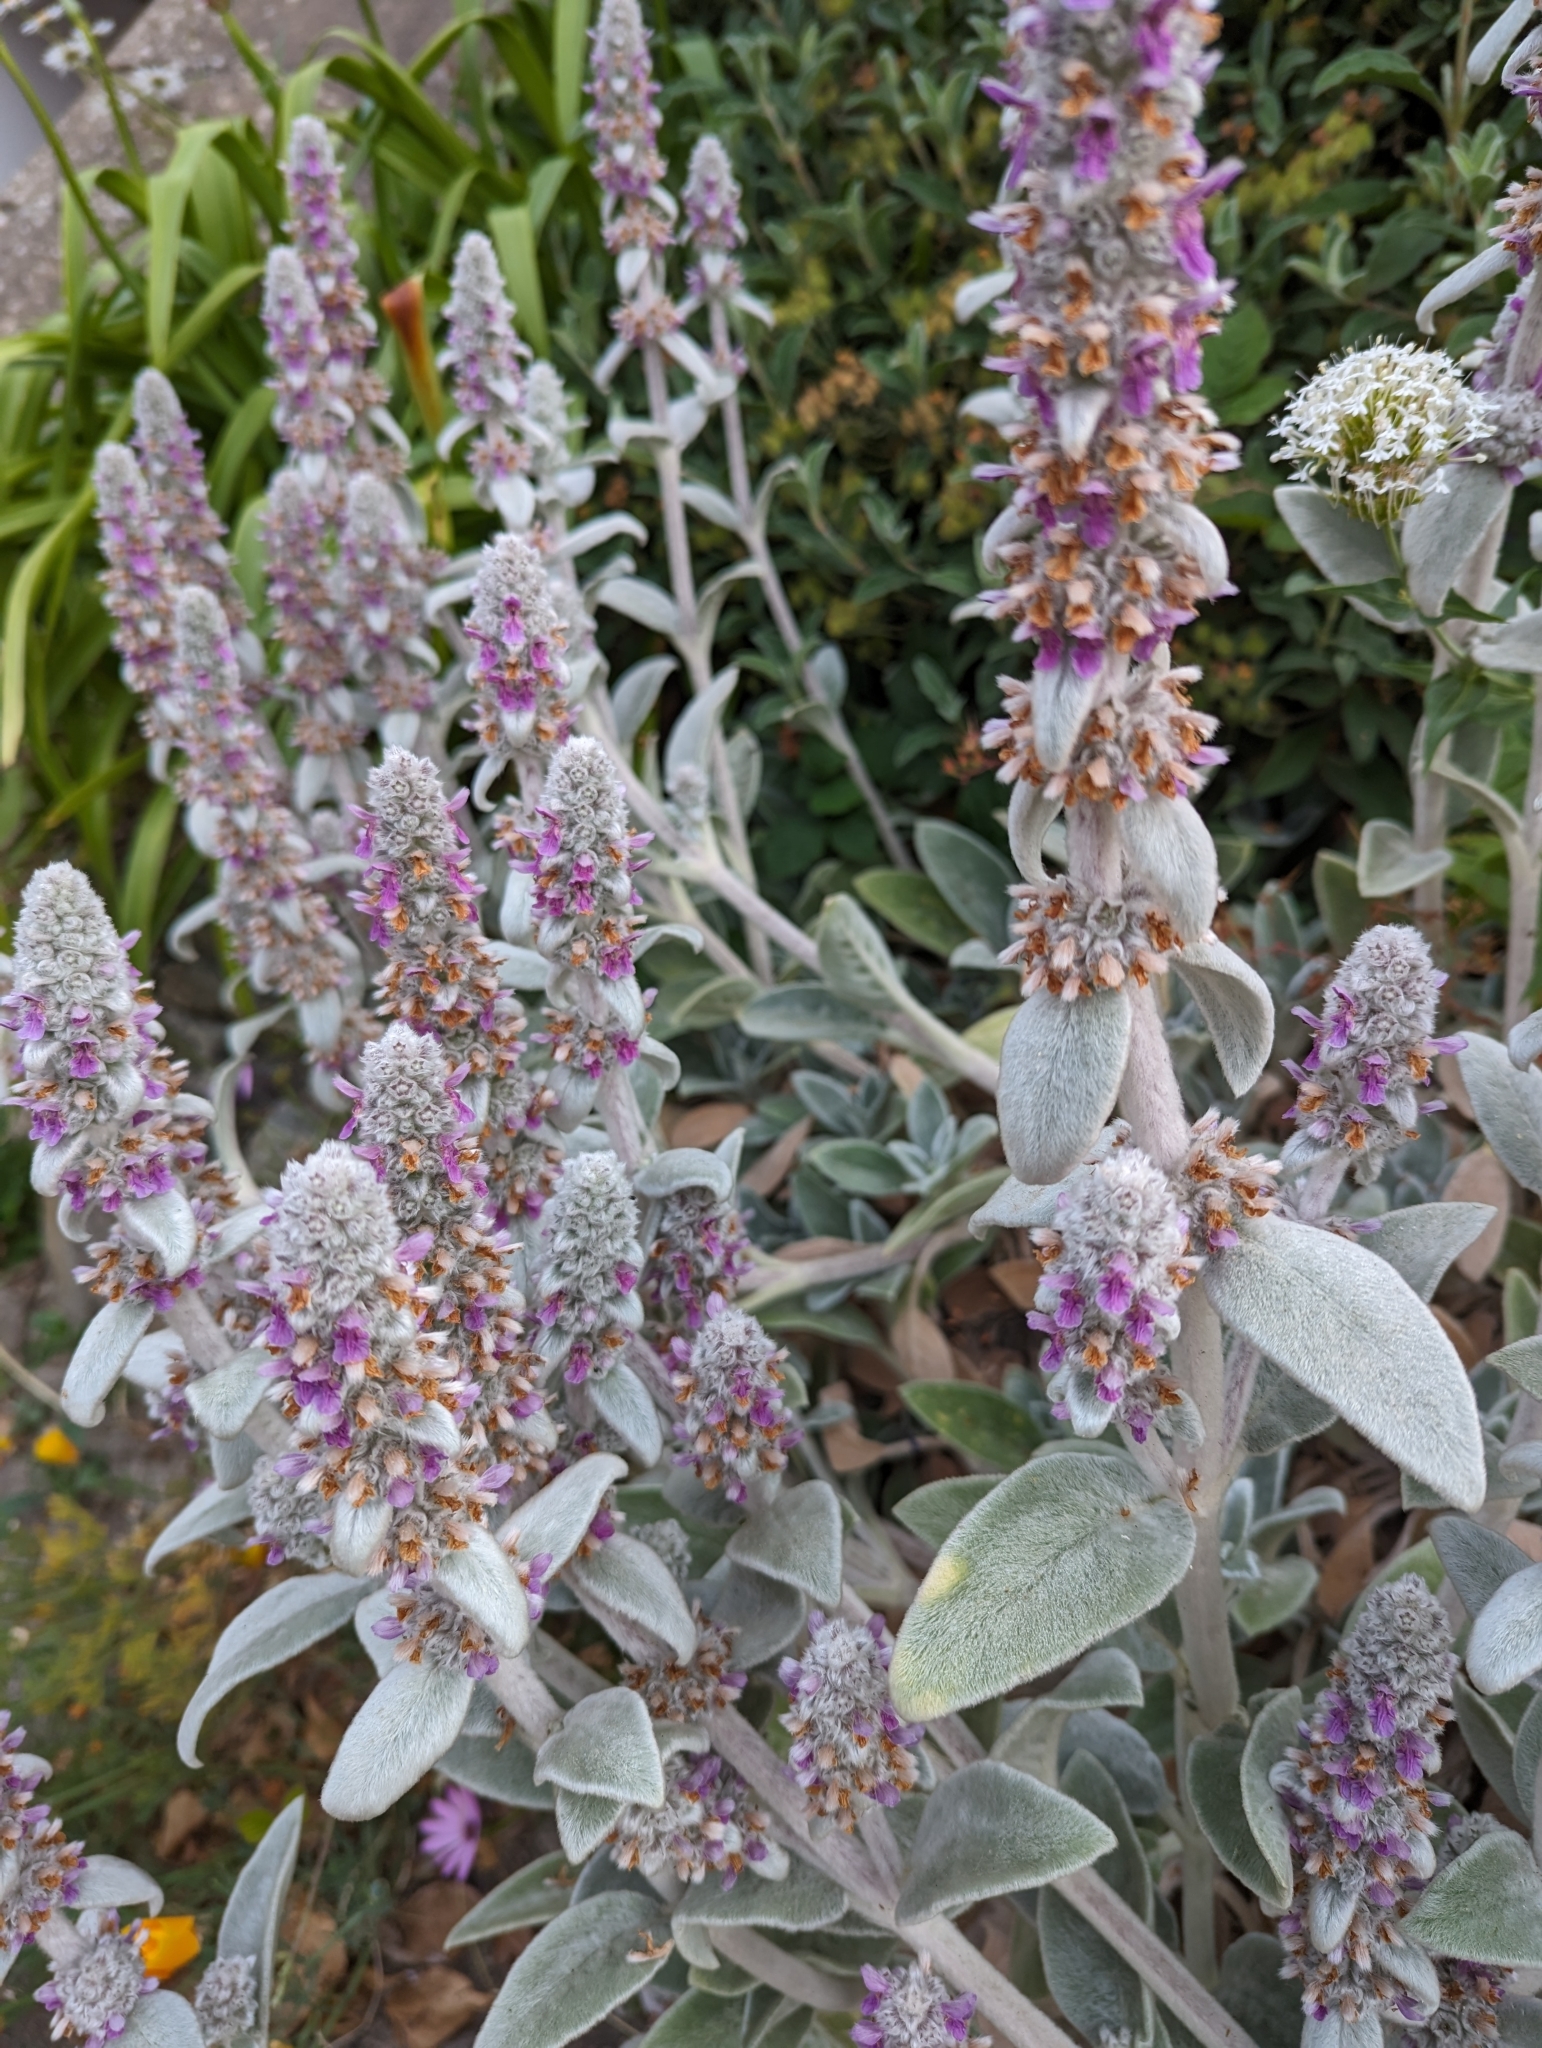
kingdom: Plantae
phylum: Tracheophyta
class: Magnoliopsida
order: Lamiales
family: Lamiaceae
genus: Stachys
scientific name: Stachys byzantina
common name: Lamb's-ear
